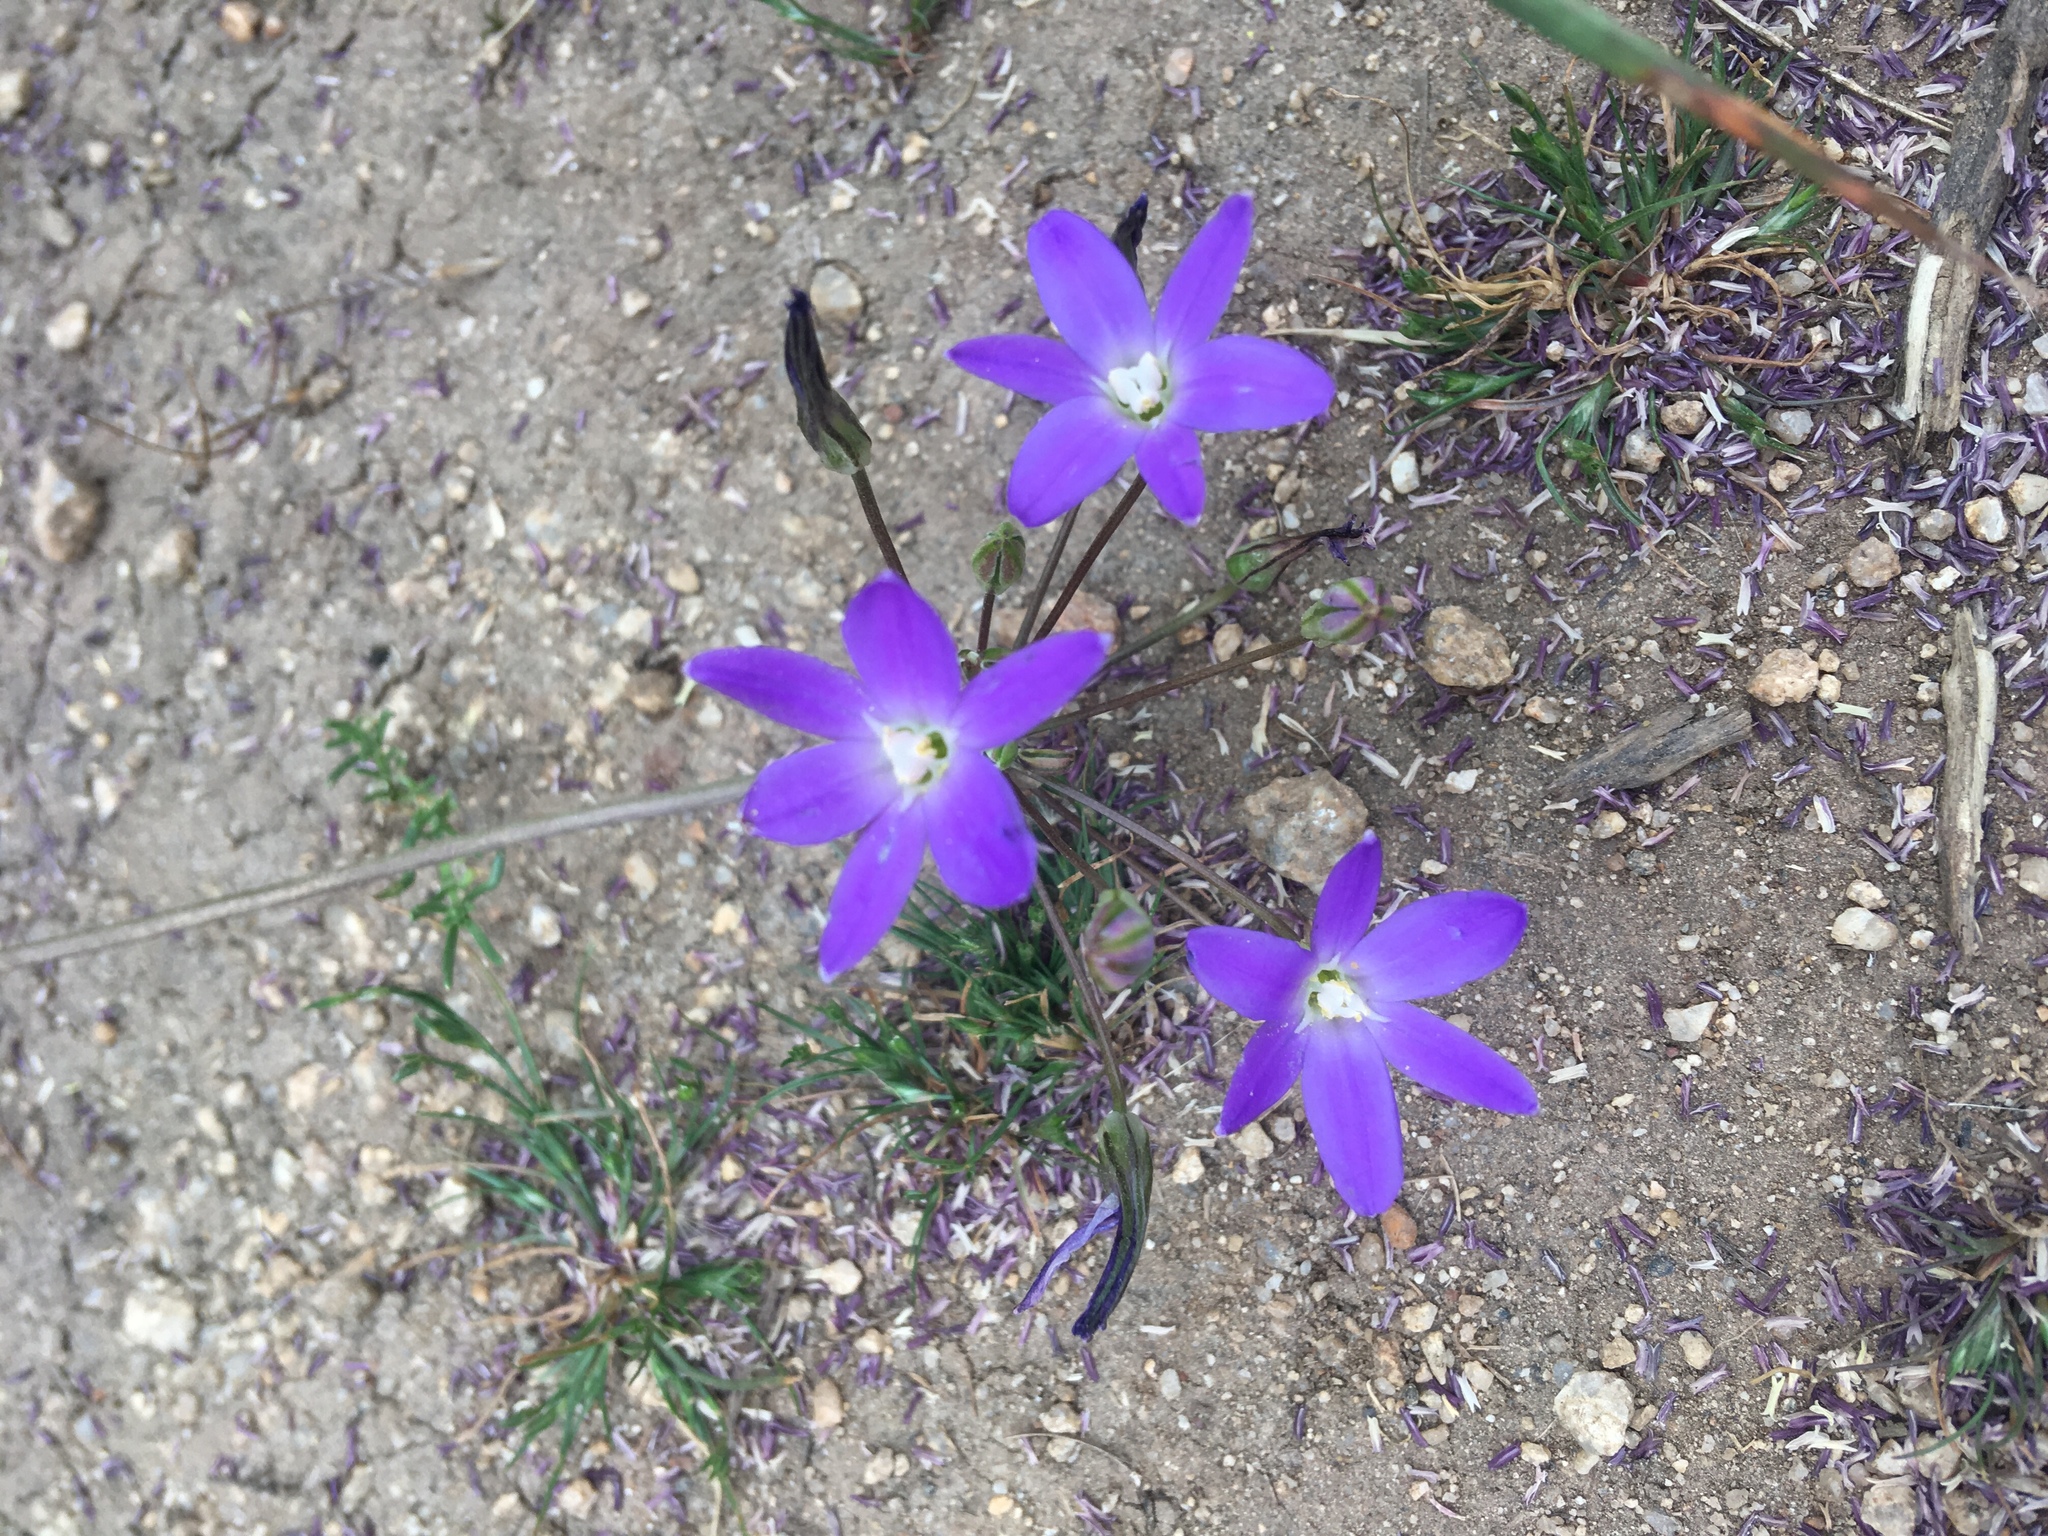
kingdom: Plantae
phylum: Tracheophyta
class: Liliopsida
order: Asparagales
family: Asparagaceae
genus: Brodiaea
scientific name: Brodiaea filifolia
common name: Threadleaf brodiaea
